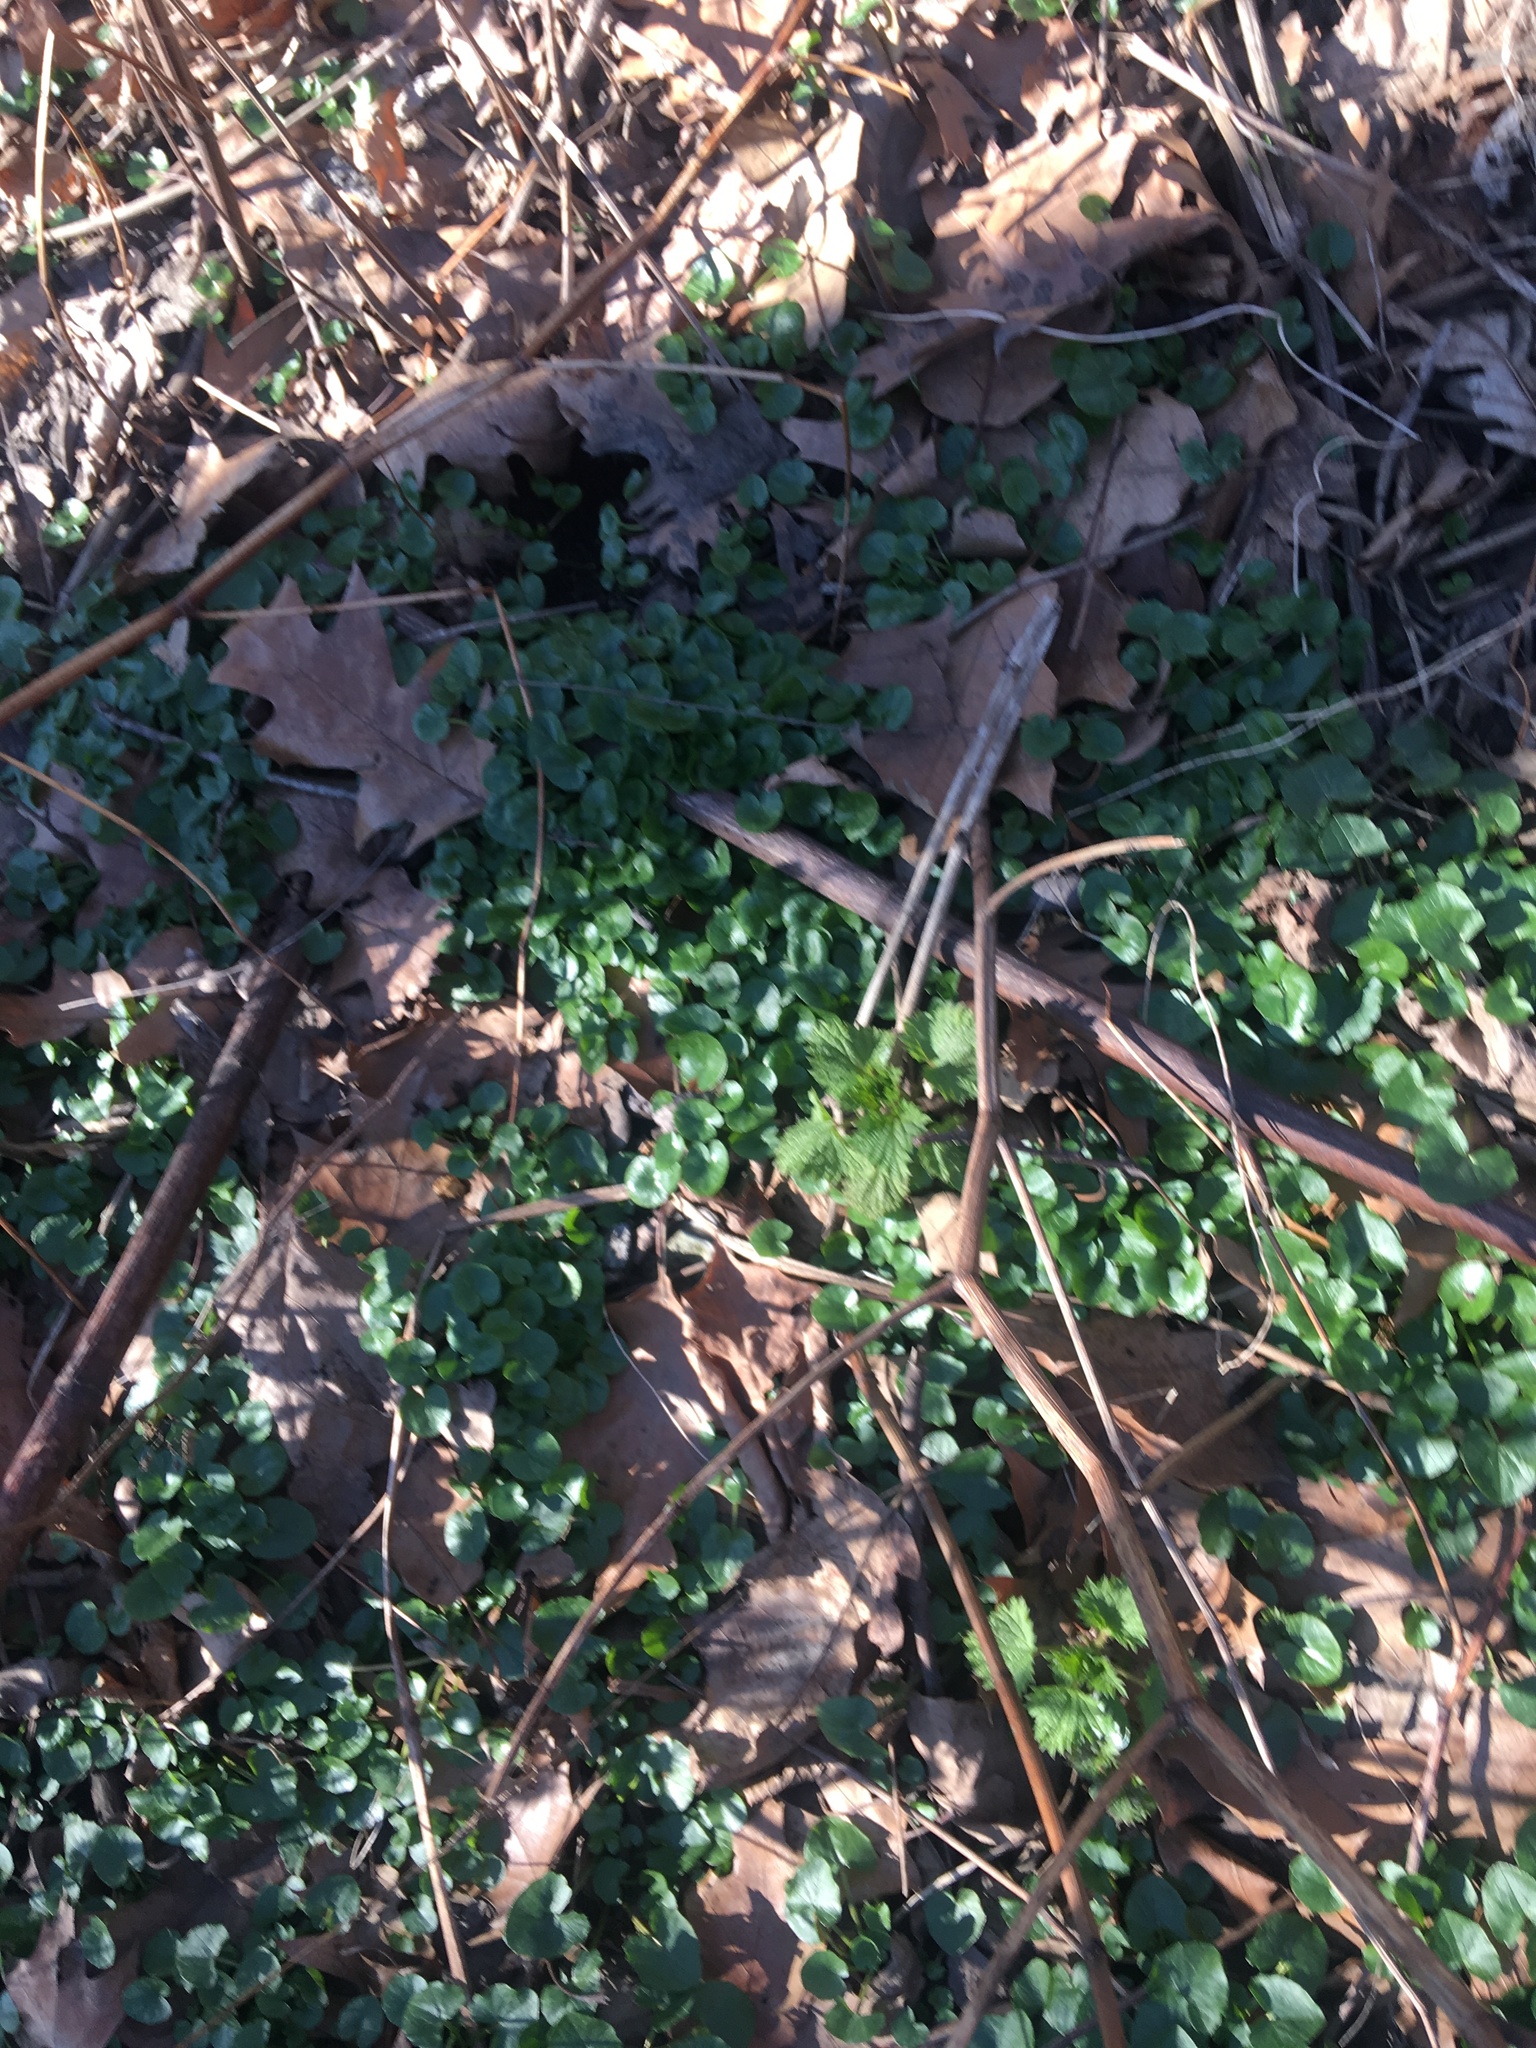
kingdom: Plantae
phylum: Tracheophyta
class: Magnoliopsida
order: Ranunculales
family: Ranunculaceae
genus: Ficaria
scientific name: Ficaria verna
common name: Lesser celandine
